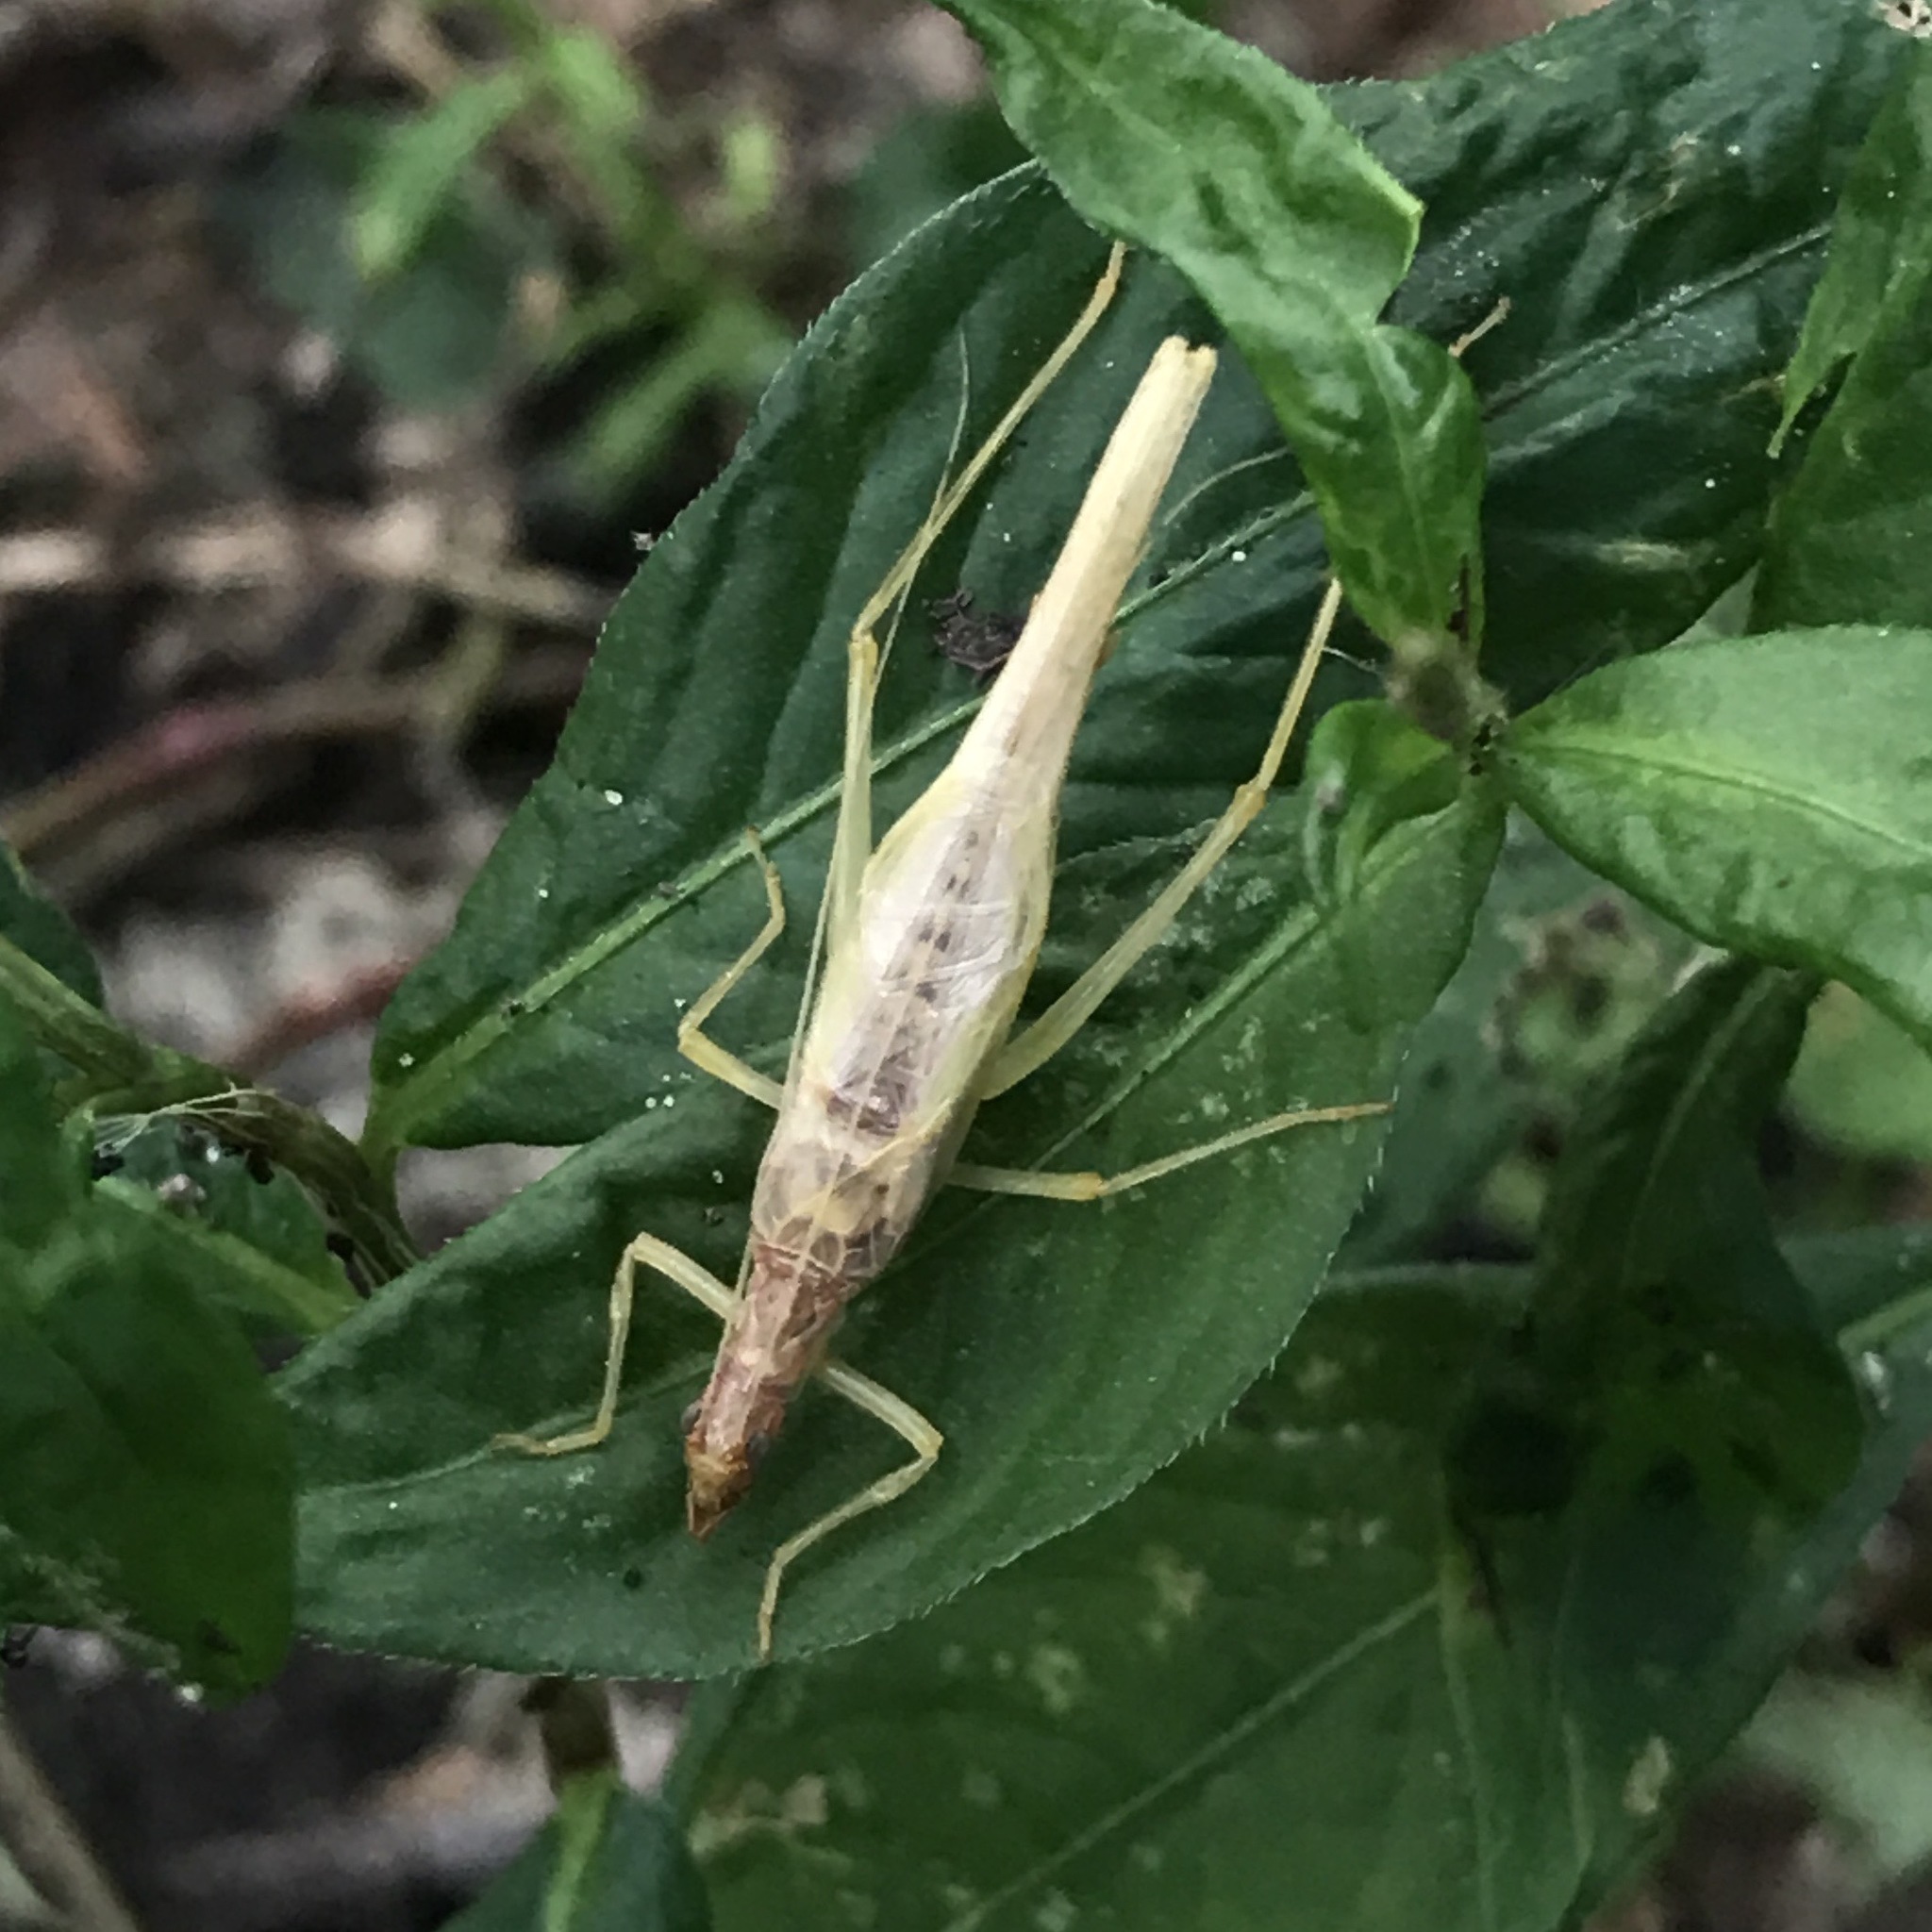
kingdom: Animalia
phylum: Arthropoda
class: Insecta
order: Orthoptera
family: Gryllidae
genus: Neoxabea
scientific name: Neoxabea bipunctata
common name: Two-spotted tree cricket
